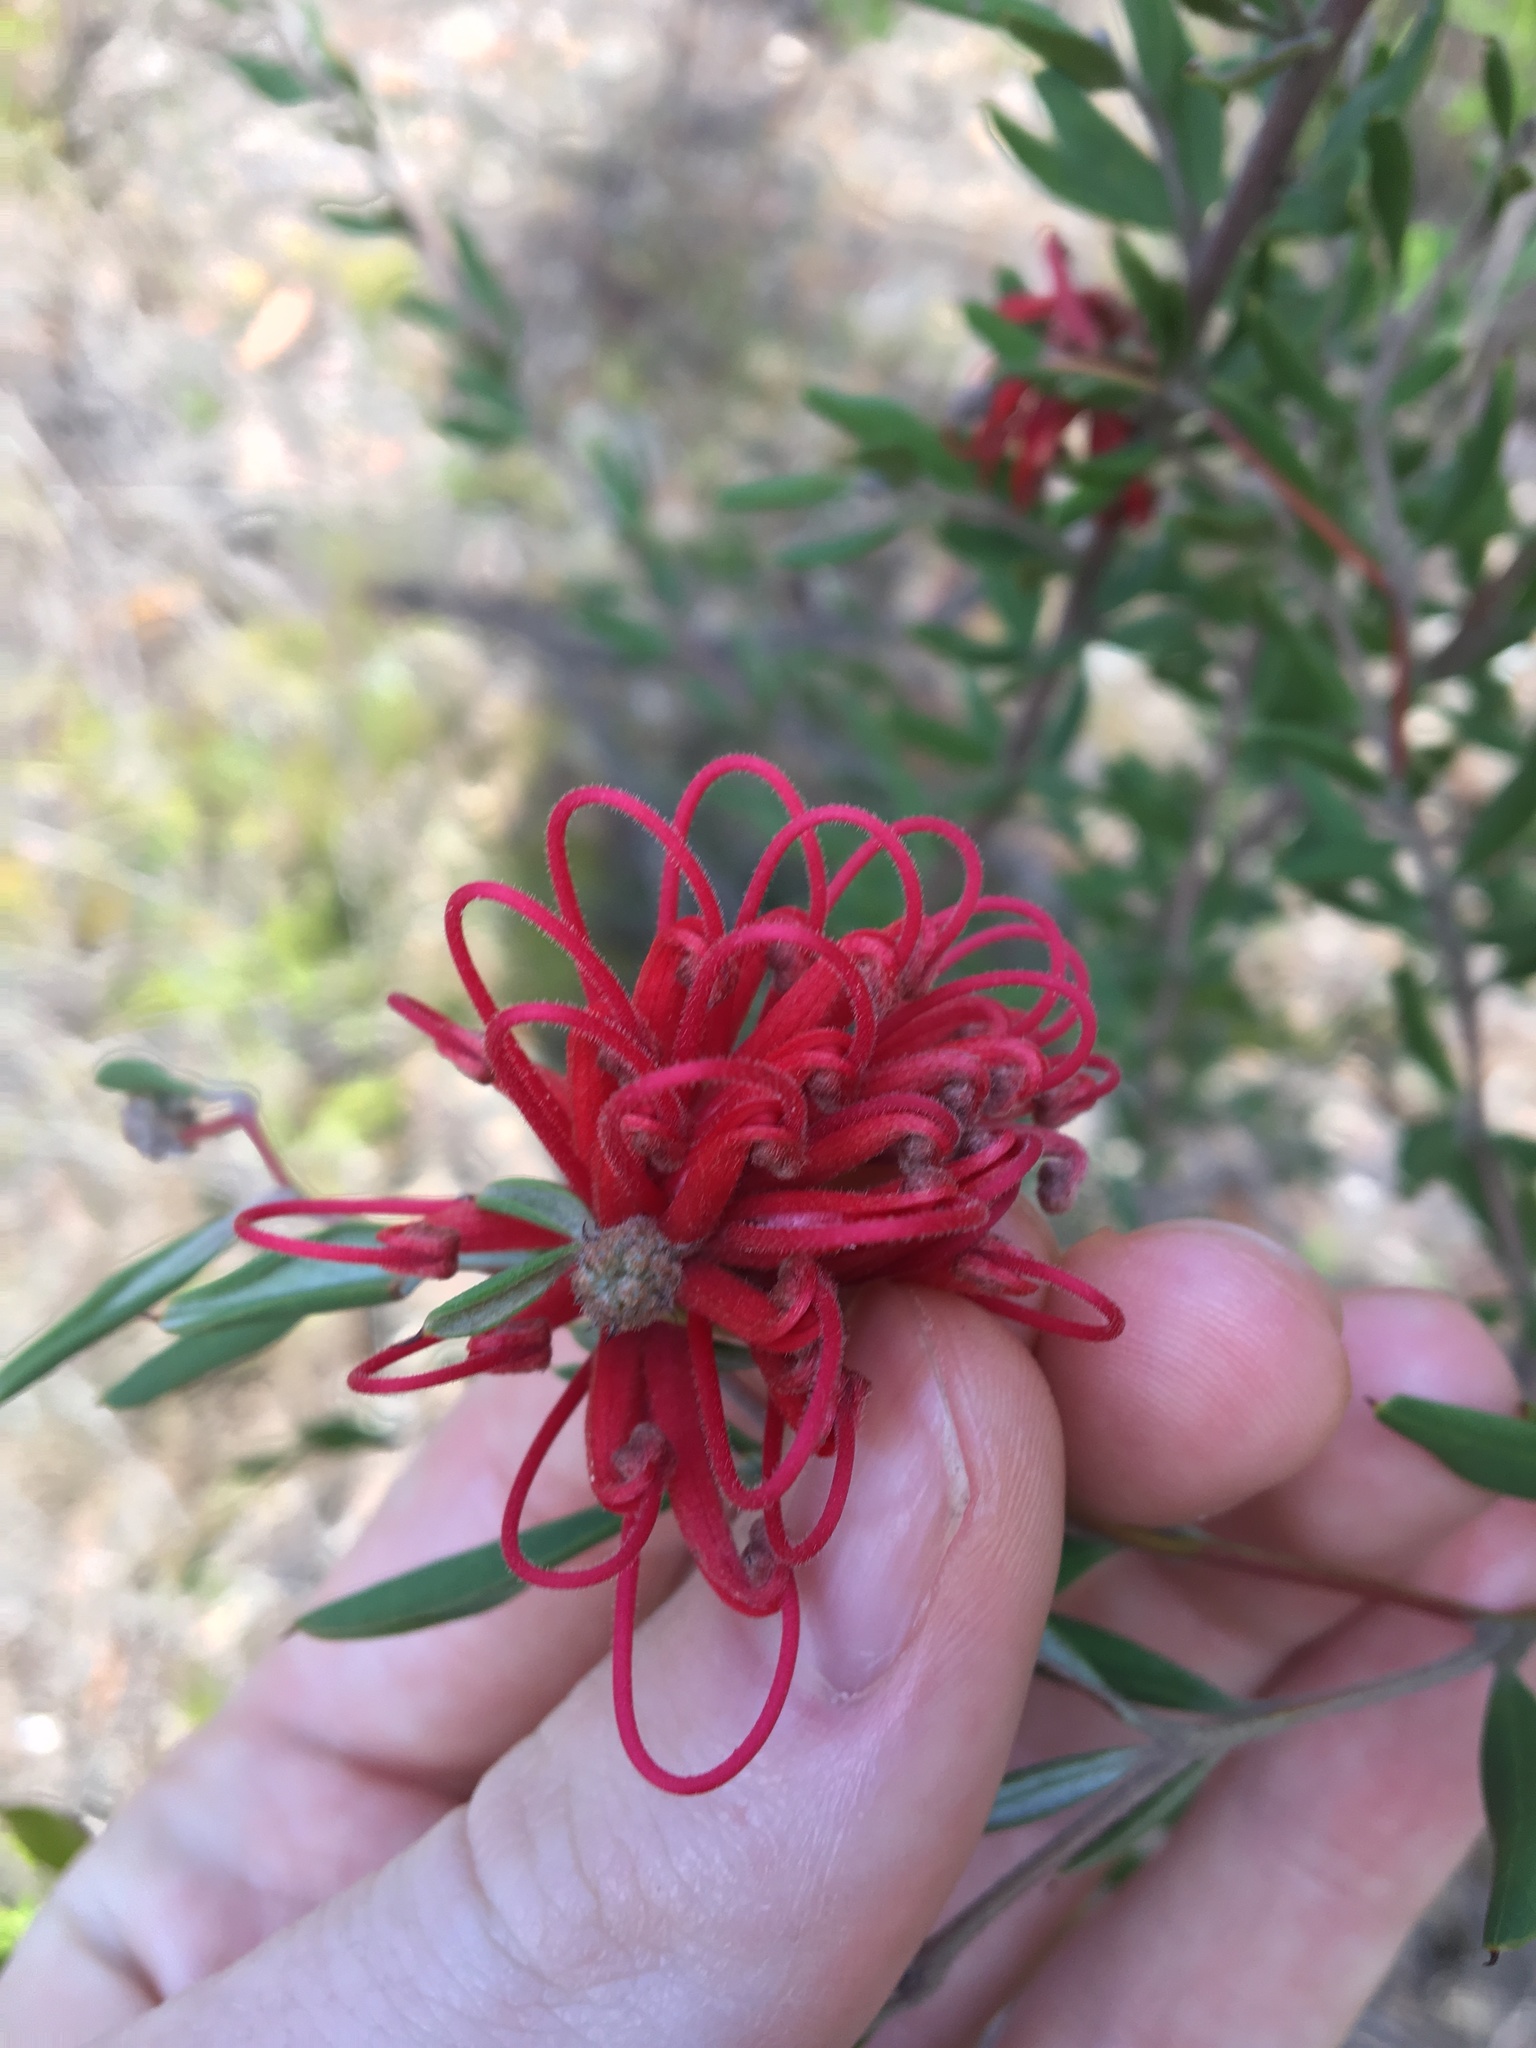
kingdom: Plantae
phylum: Tracheophyta
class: Magnoliopsida
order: Proteales
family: Proteaceae
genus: Grevillea
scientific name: Grevillea speciosa
